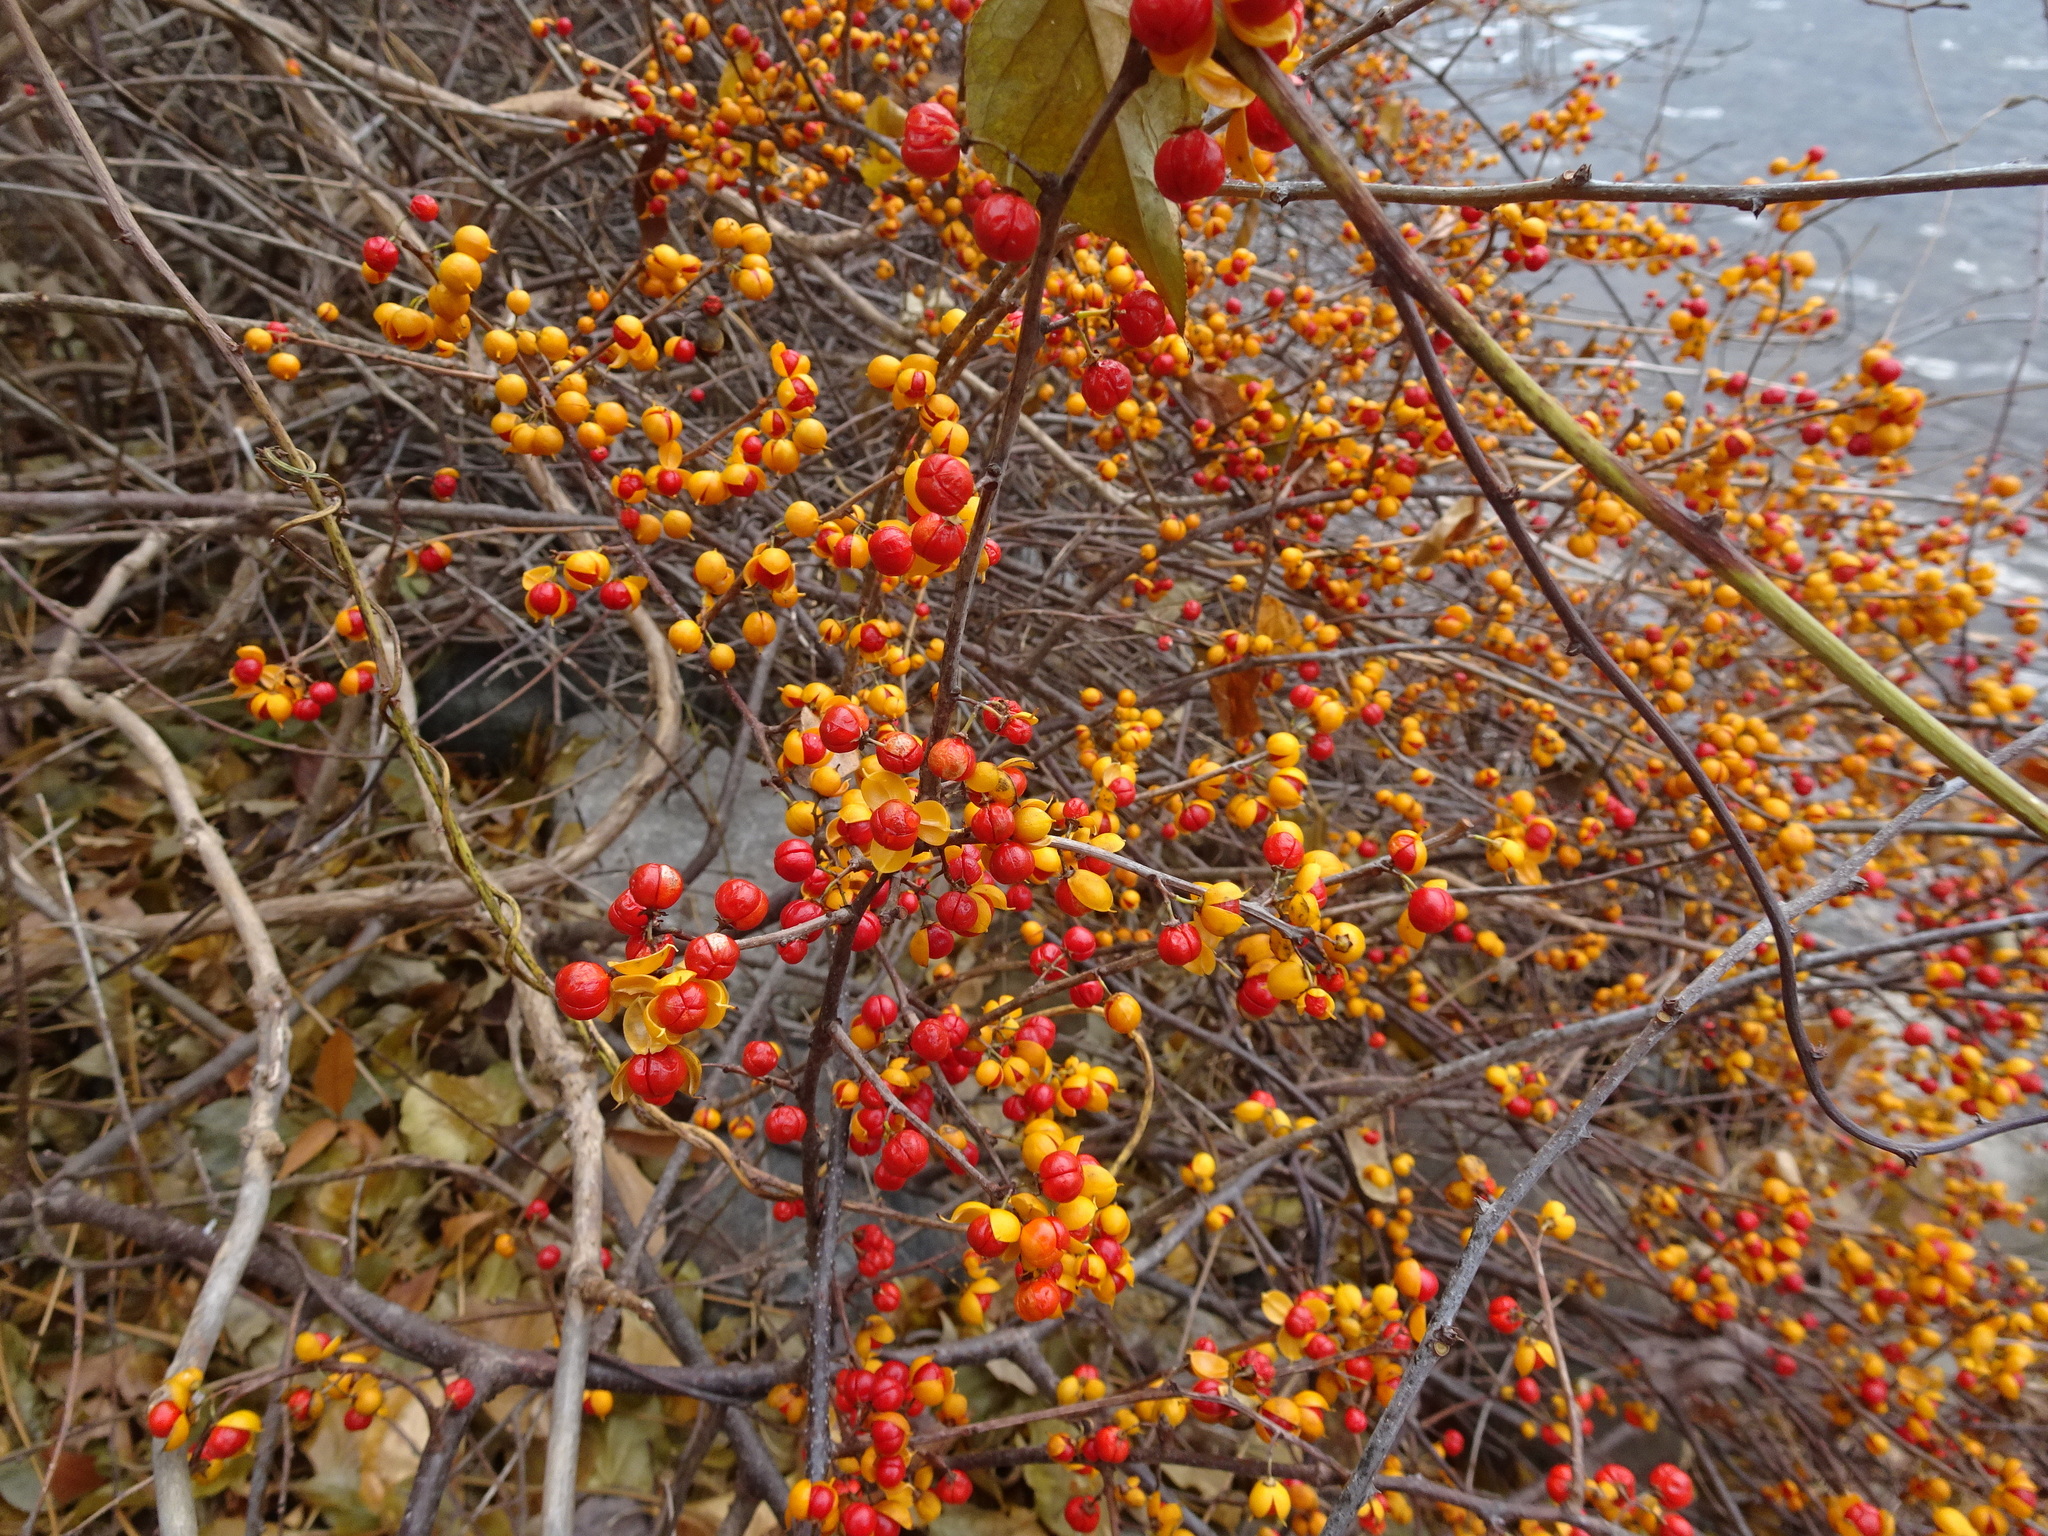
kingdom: Plantae
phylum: Tracheophyta
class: Magnoliopsida
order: Celastrales
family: Celastraceae
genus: Celastrus
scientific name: Celastrus orbiculatus
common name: Oriental bittersweet
